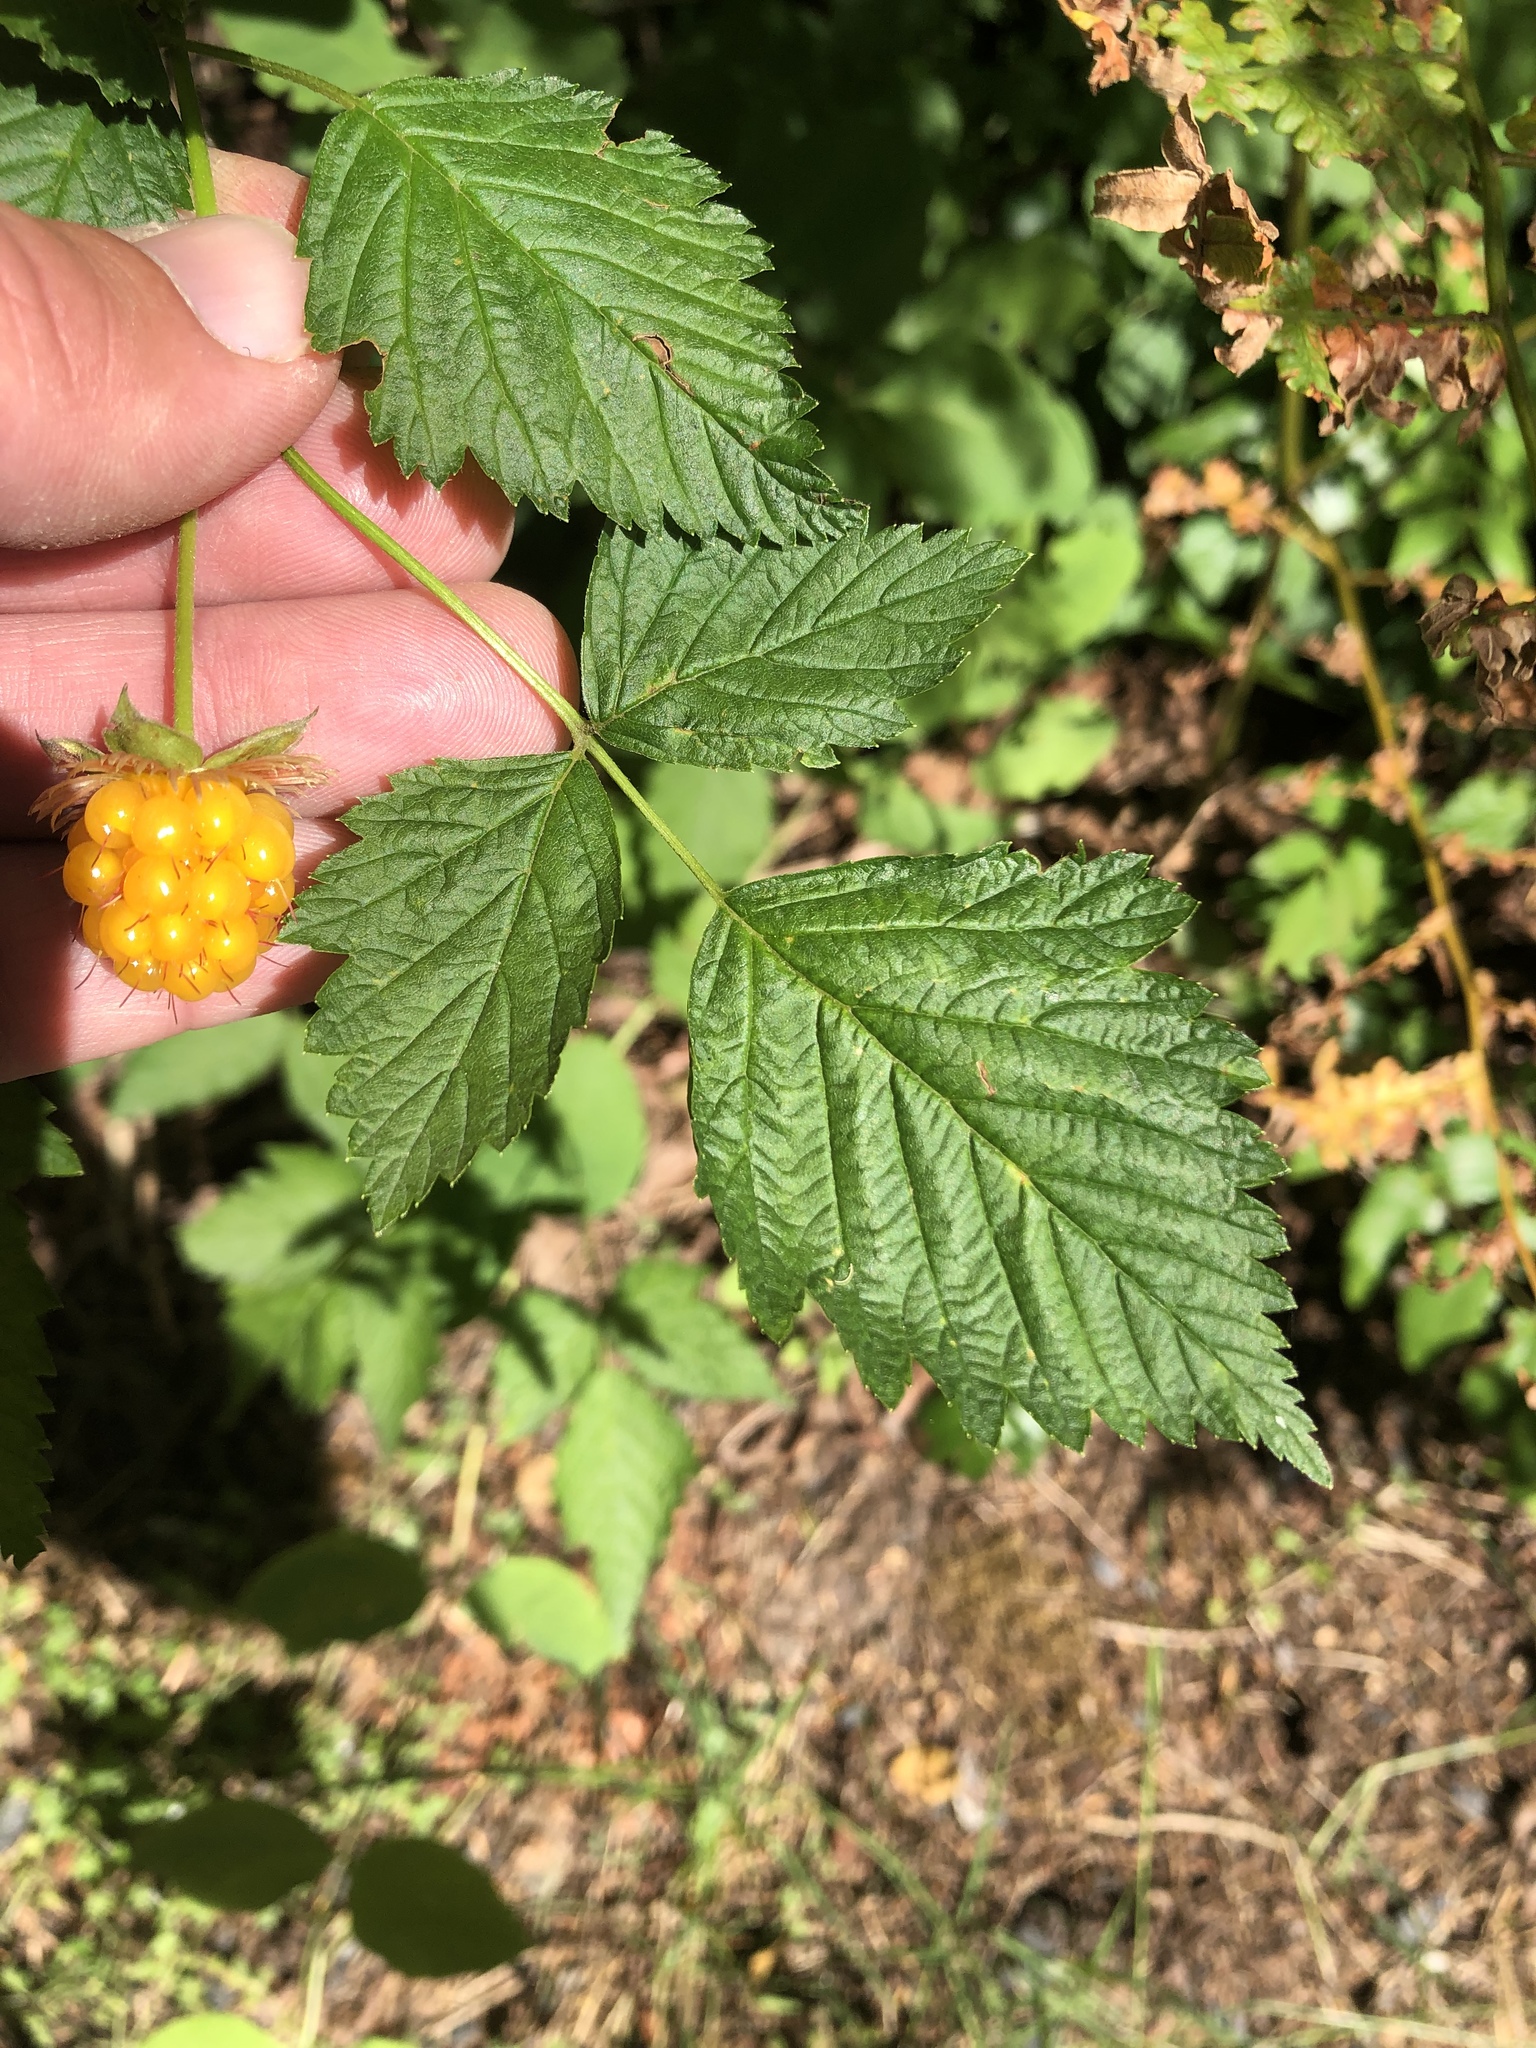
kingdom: Plantae
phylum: Tracheophyta
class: Magnoliopsida
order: Rosales
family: Rosaceae
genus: Rubus
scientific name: Rubus spectabilis
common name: Salmonberry
